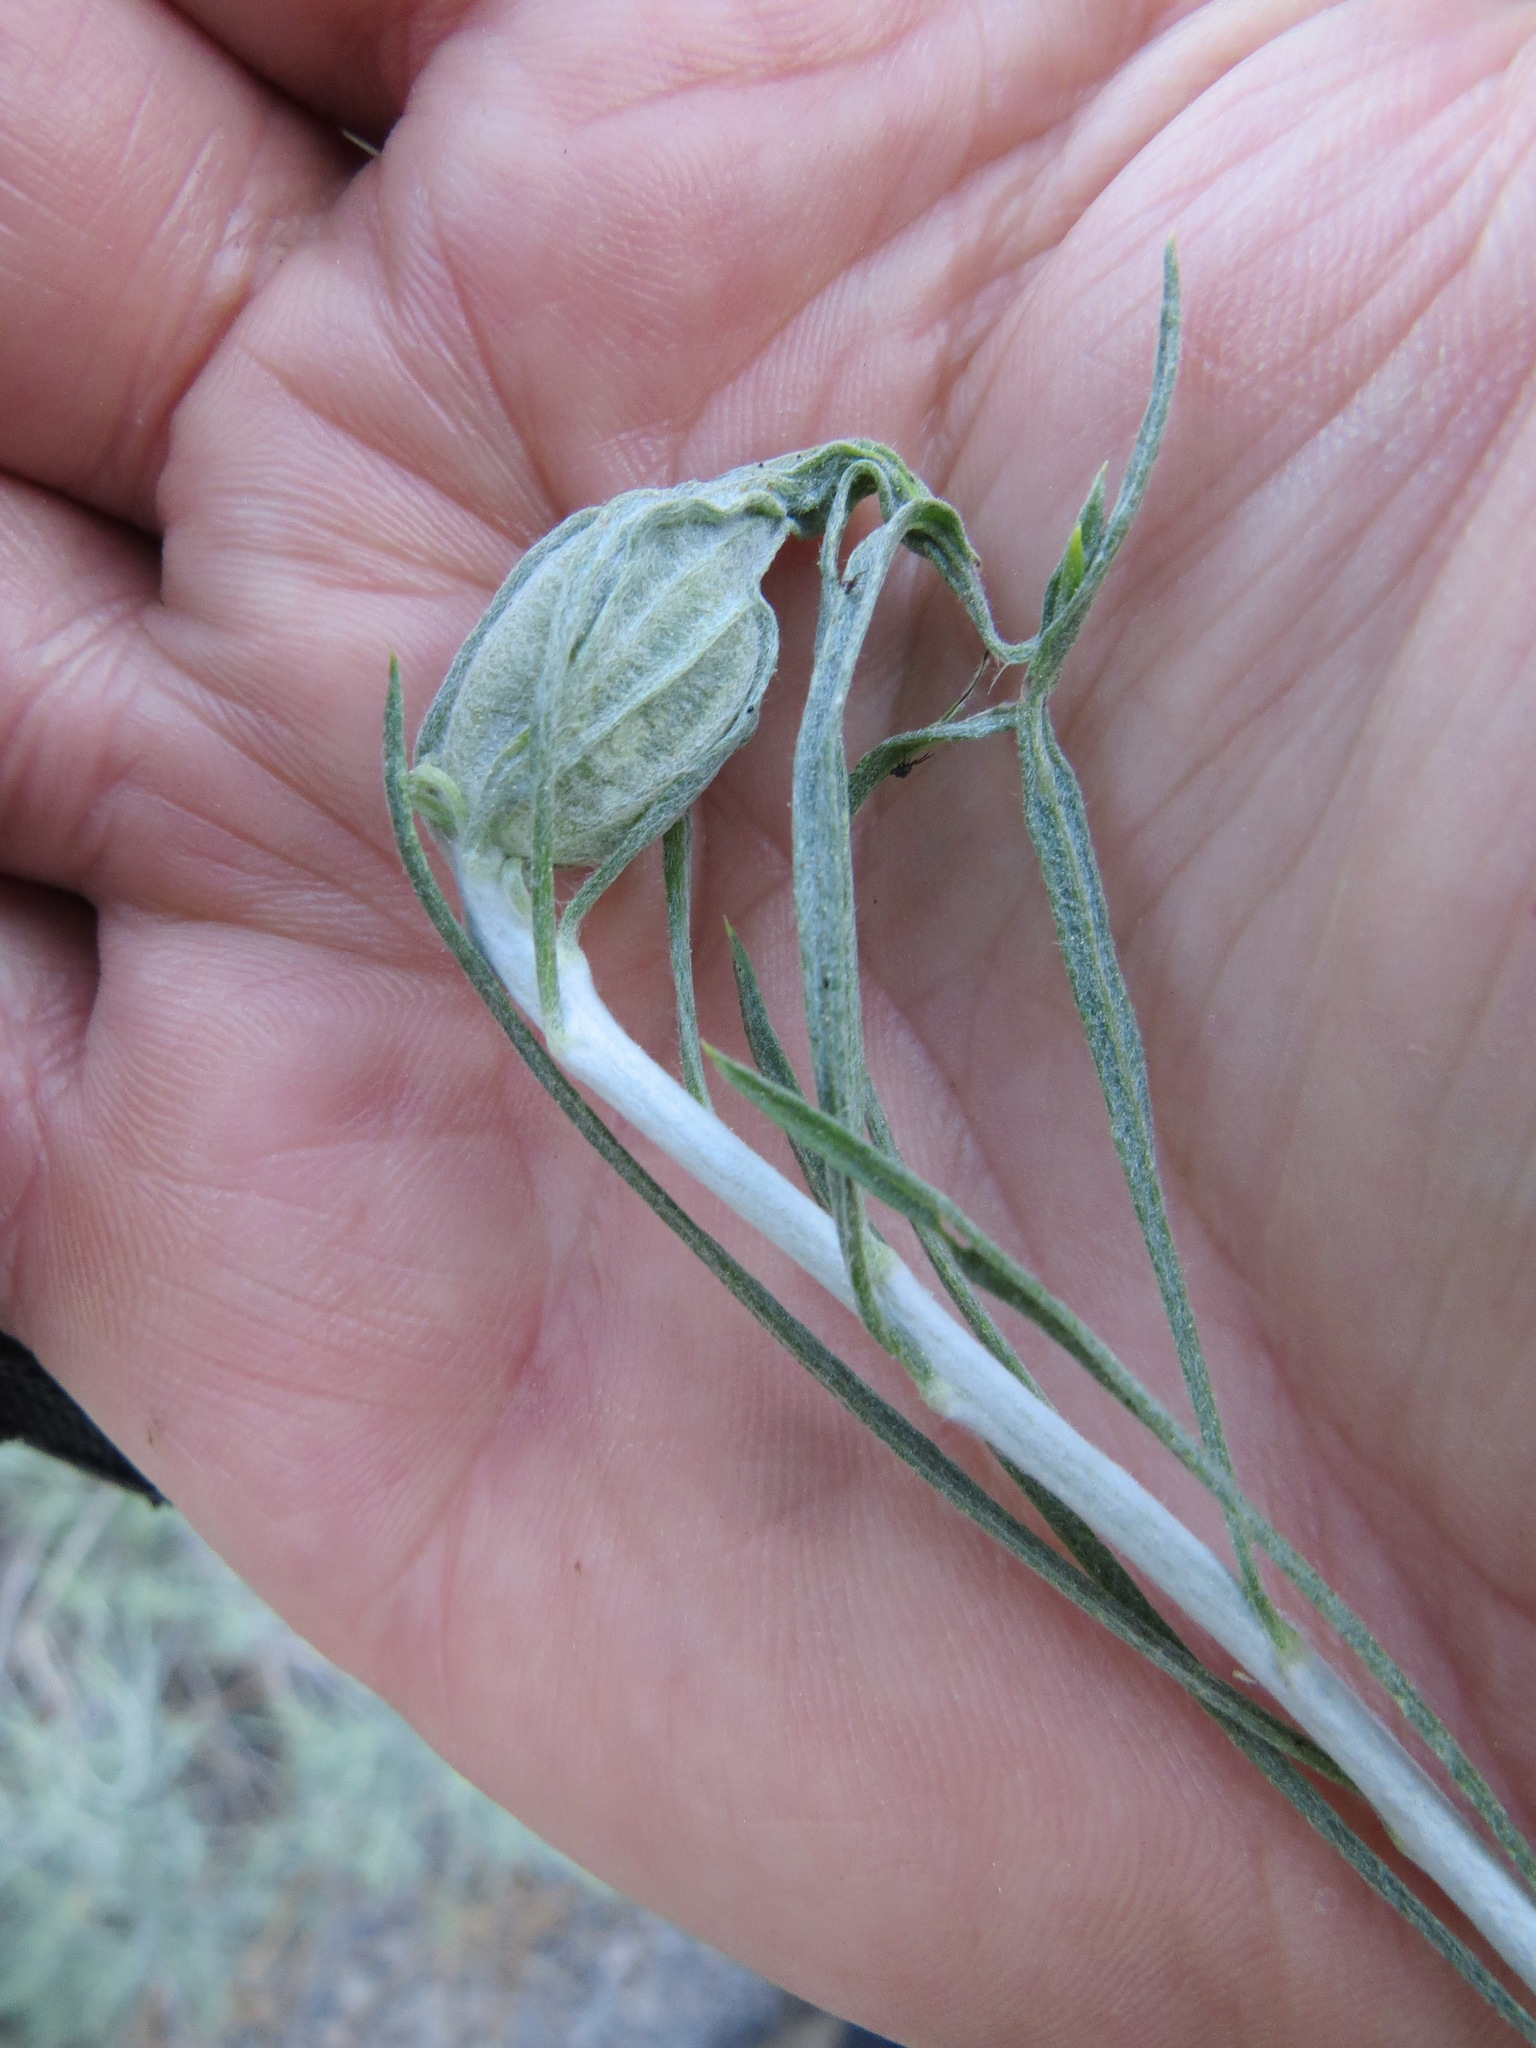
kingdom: Animalia
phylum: Arthropoda
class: Insecta
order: Lepidoptera
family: Gelechiidae
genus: Gnorimoschema
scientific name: Gnorimoschema octomaculella
